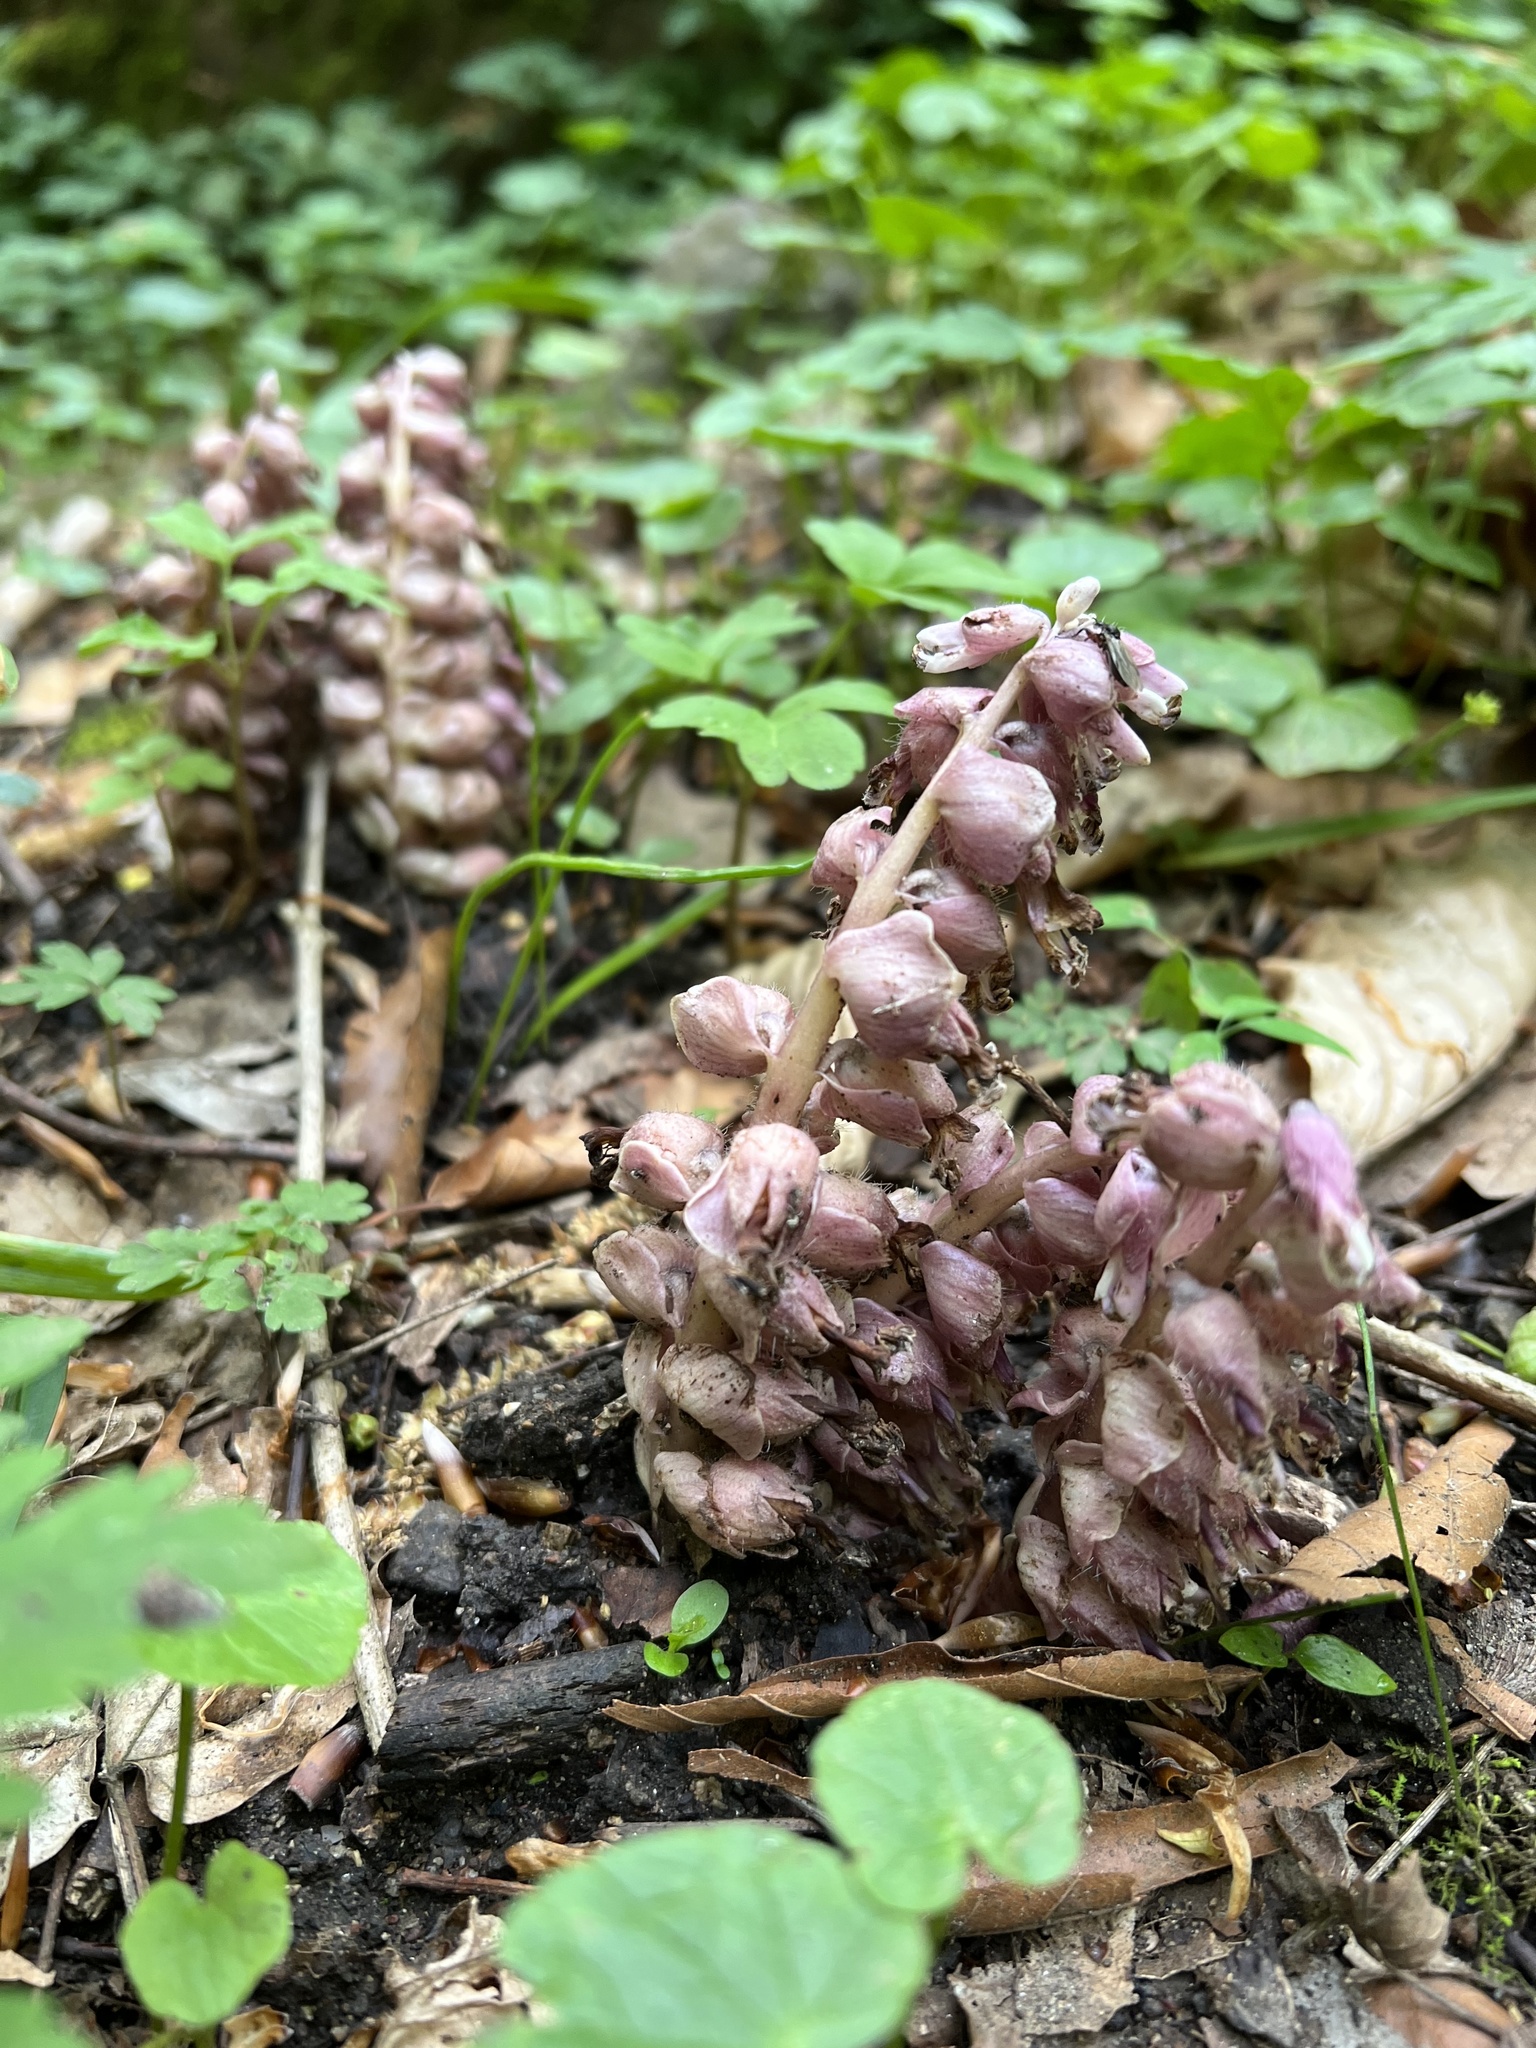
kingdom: Plantae
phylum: Tracheophyta
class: Magnoliopsida
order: Lamiales
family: Orobanchaceae
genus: Lathraea
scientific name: Lathraea squamaria
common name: Toothwort
